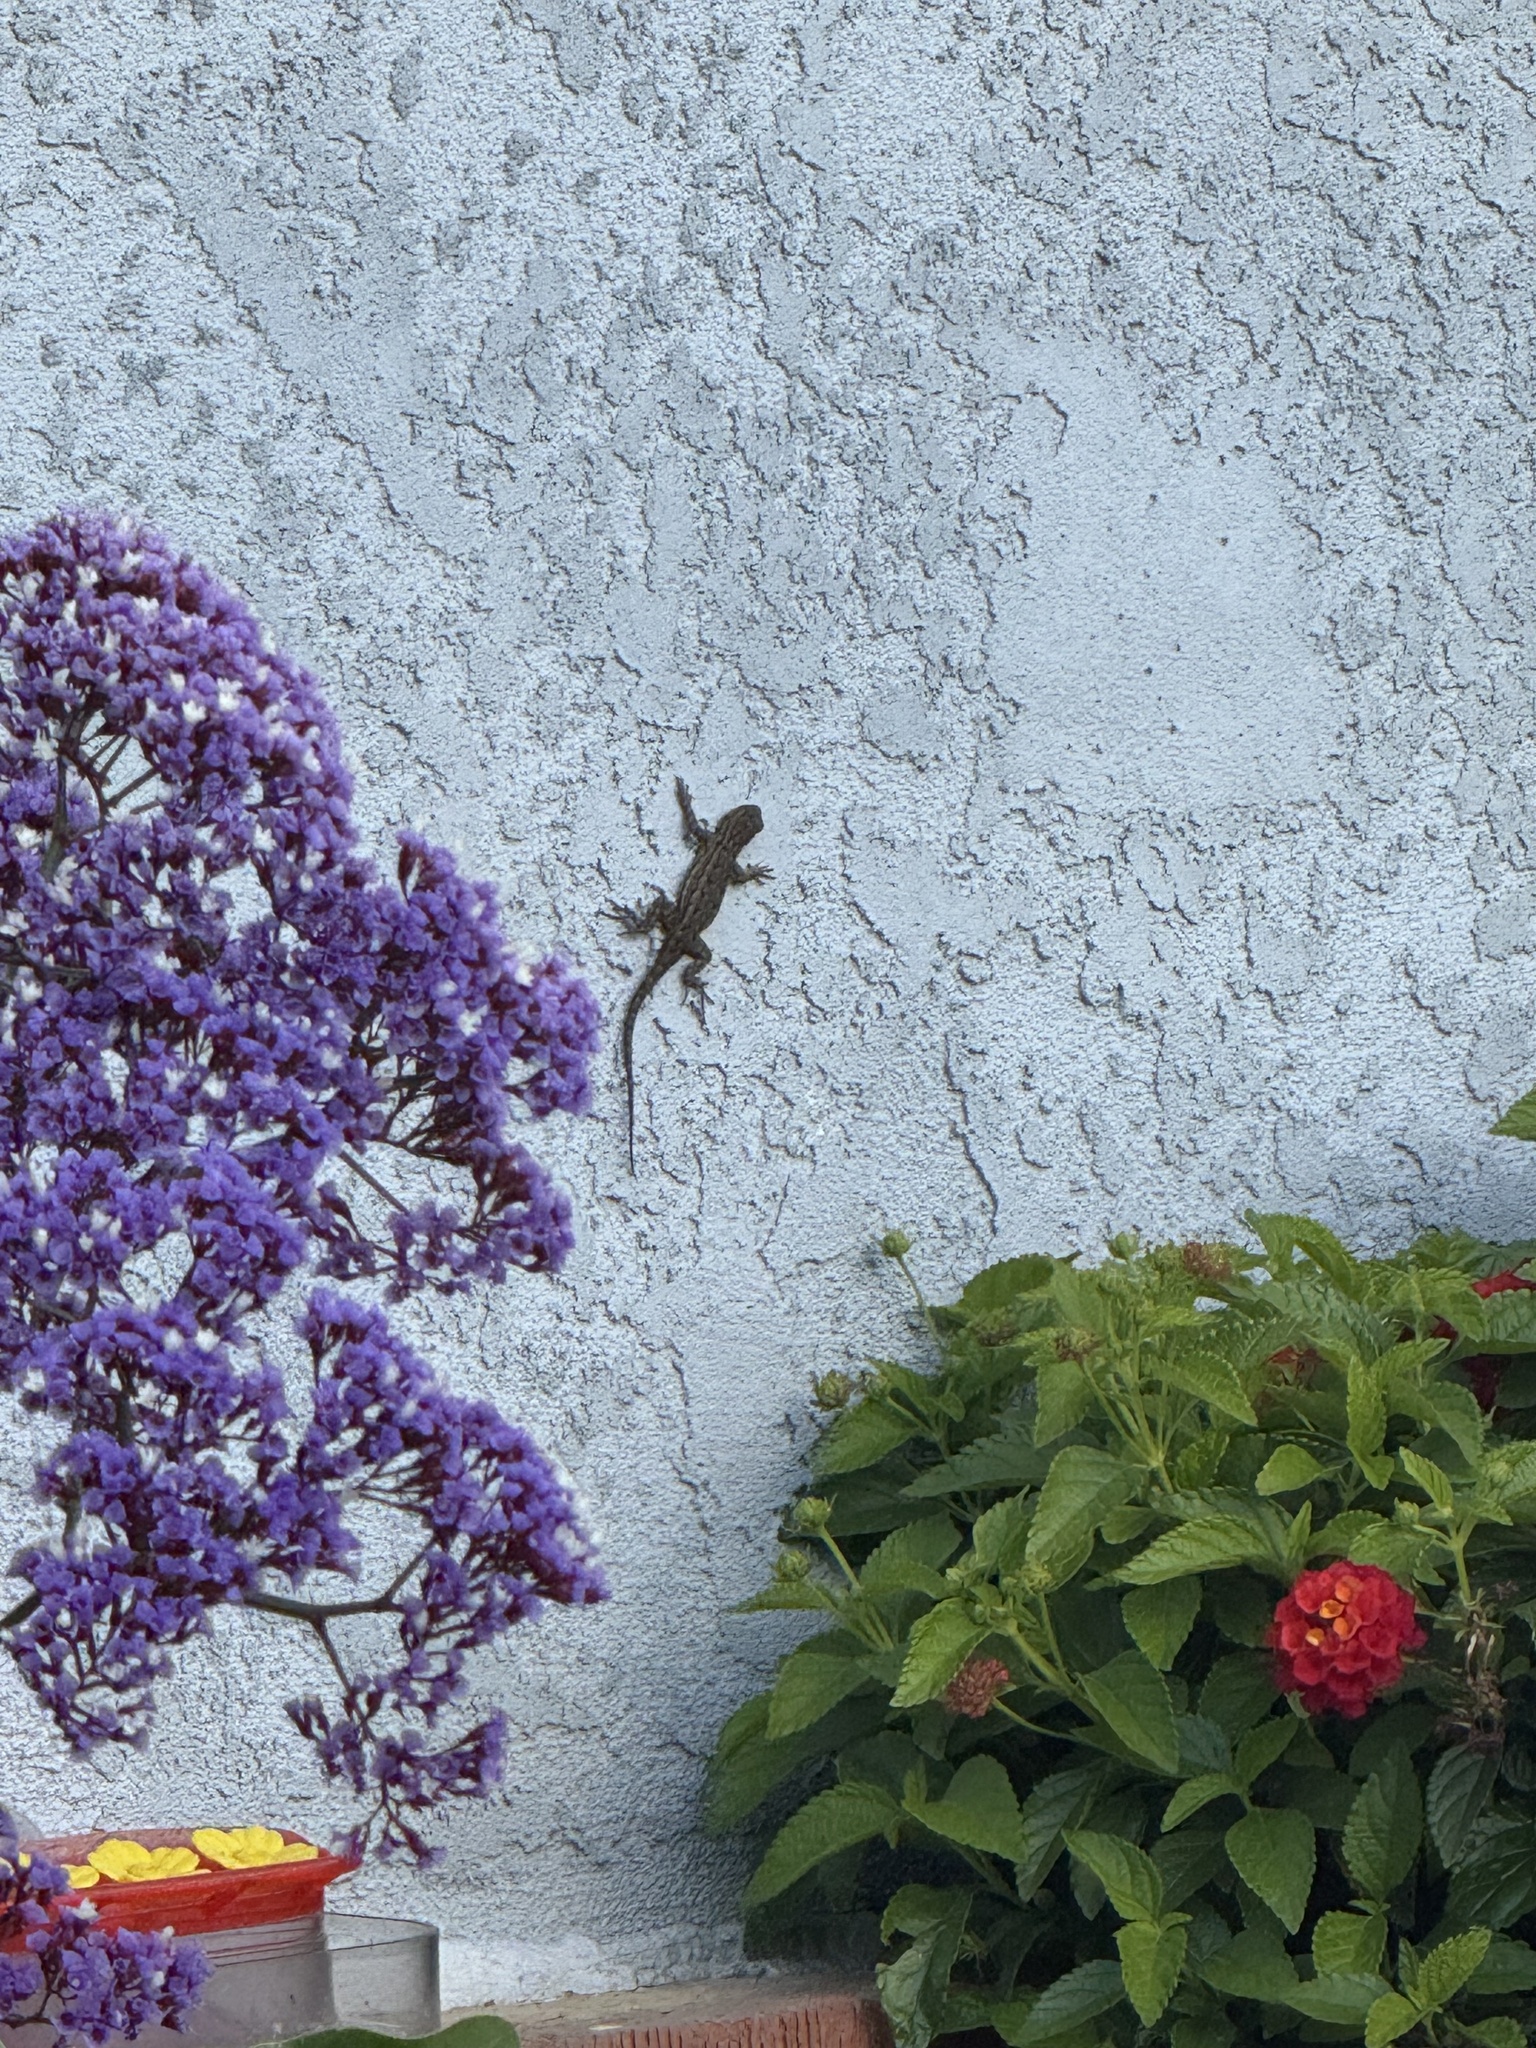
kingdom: Animalia
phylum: Chordata
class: Squamata
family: Phrynosomatidae
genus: Sceloporus
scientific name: Sceloporus occidentalis
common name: Western fence lizard
